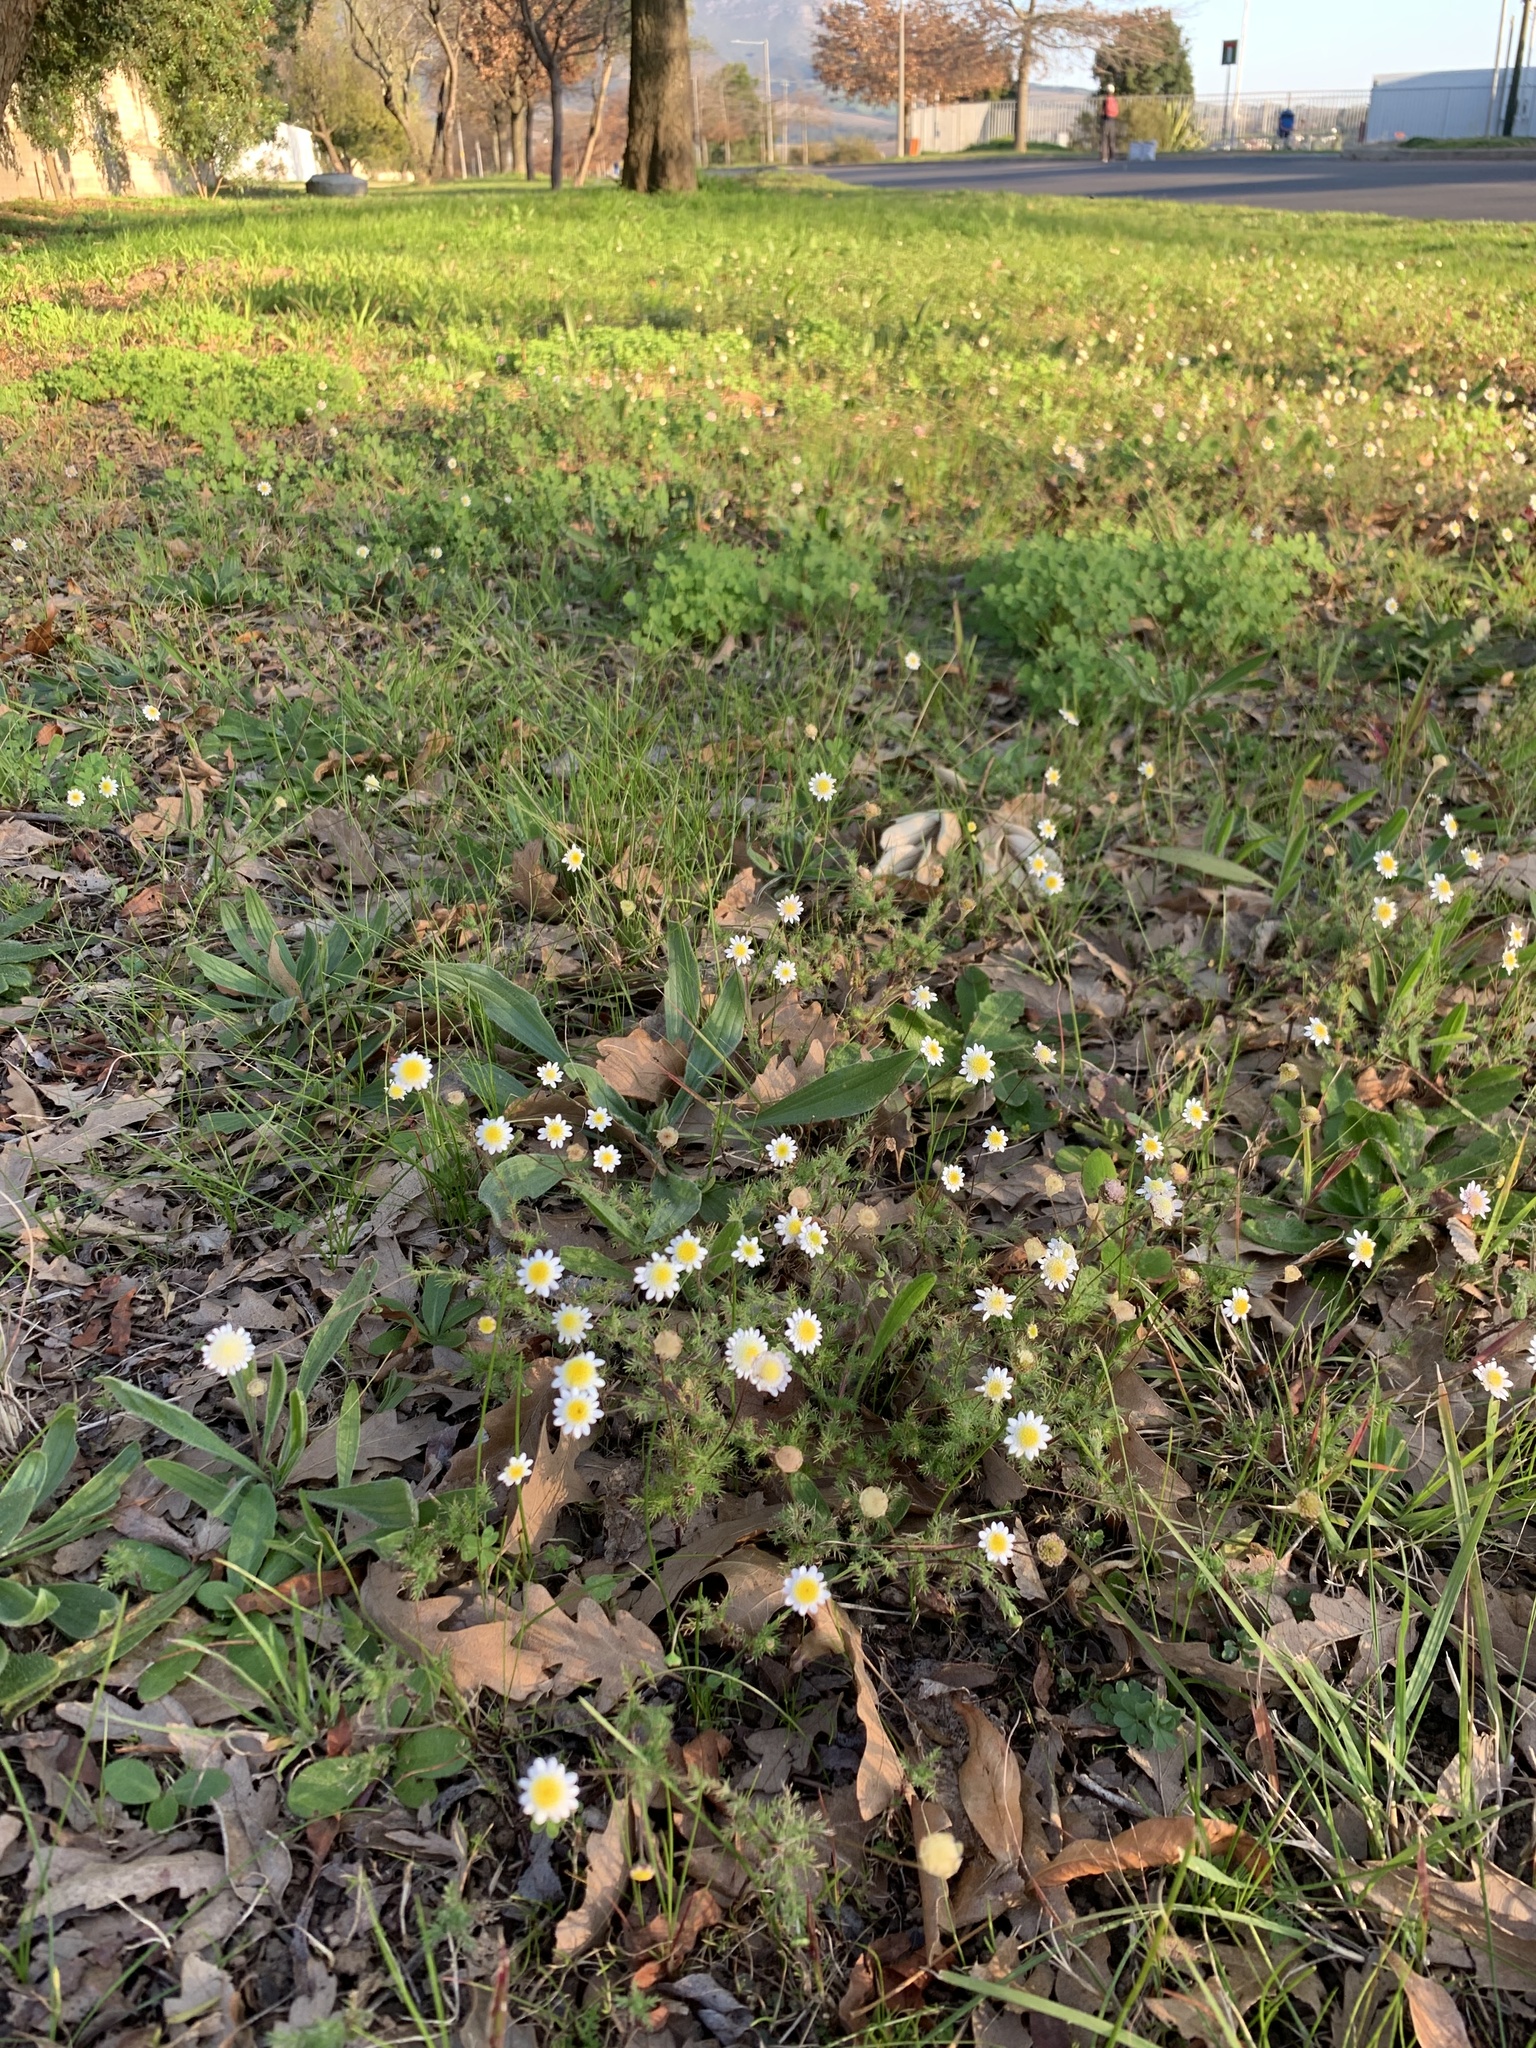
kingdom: Plantae
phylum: Tracheophyta
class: Magnoliopsida
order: Asterales
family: Asteraceae
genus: Cotula
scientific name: Cotula turbinata
